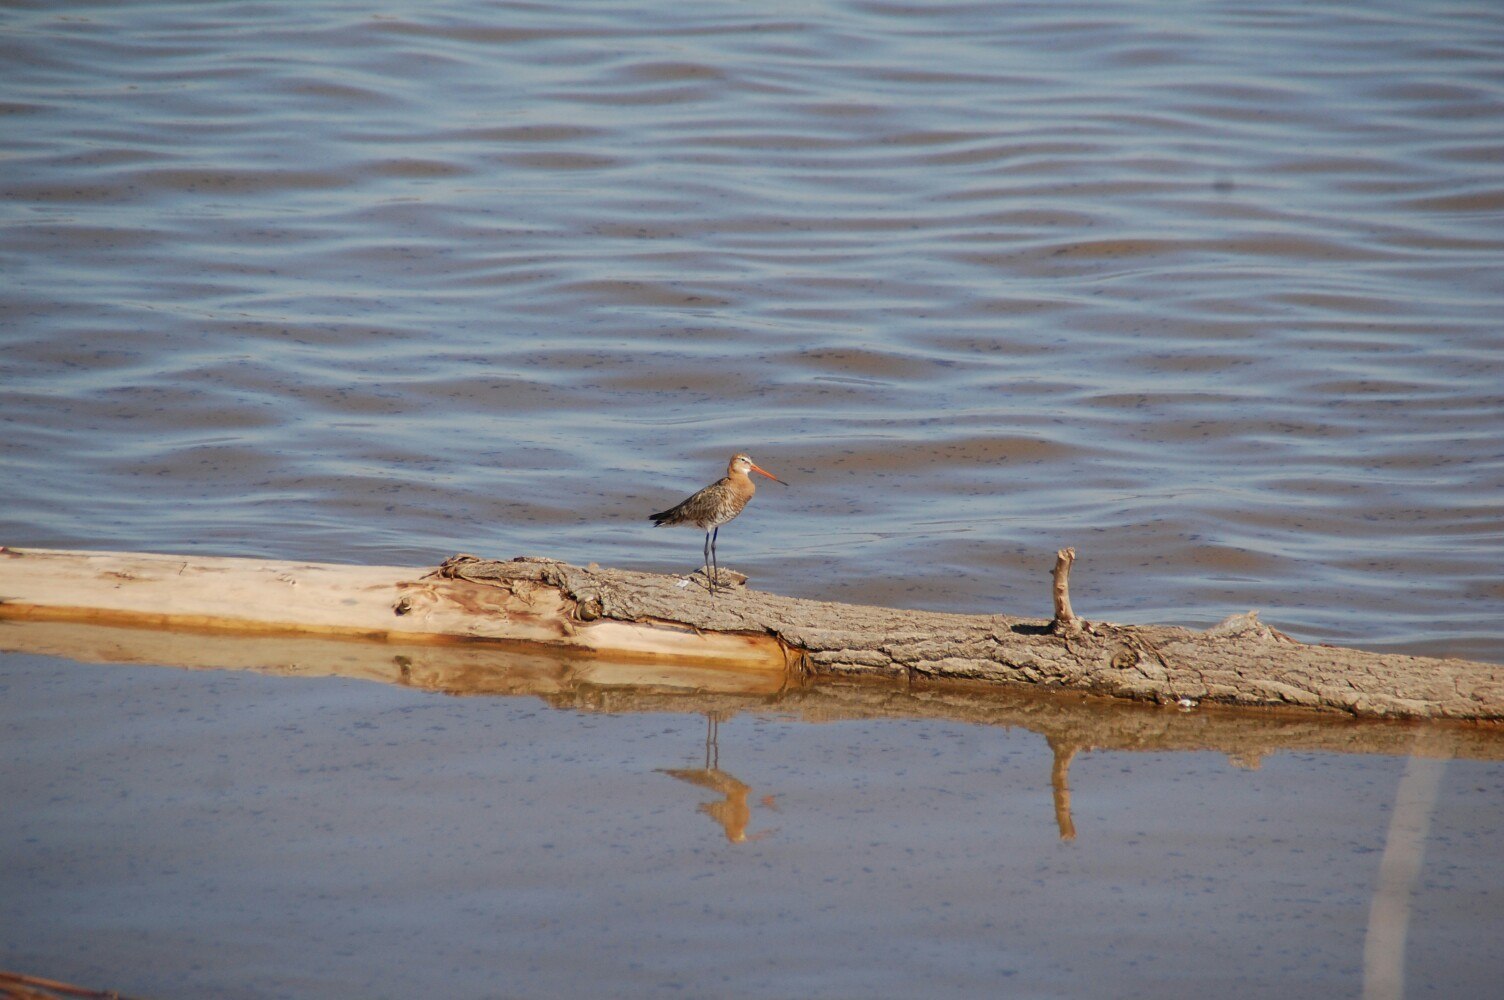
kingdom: Animalia
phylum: Chordata
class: Aves
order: Charadriiformes
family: Scolopacidae
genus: Limosa
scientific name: Limosa limosa
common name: Black-tailed godwit
